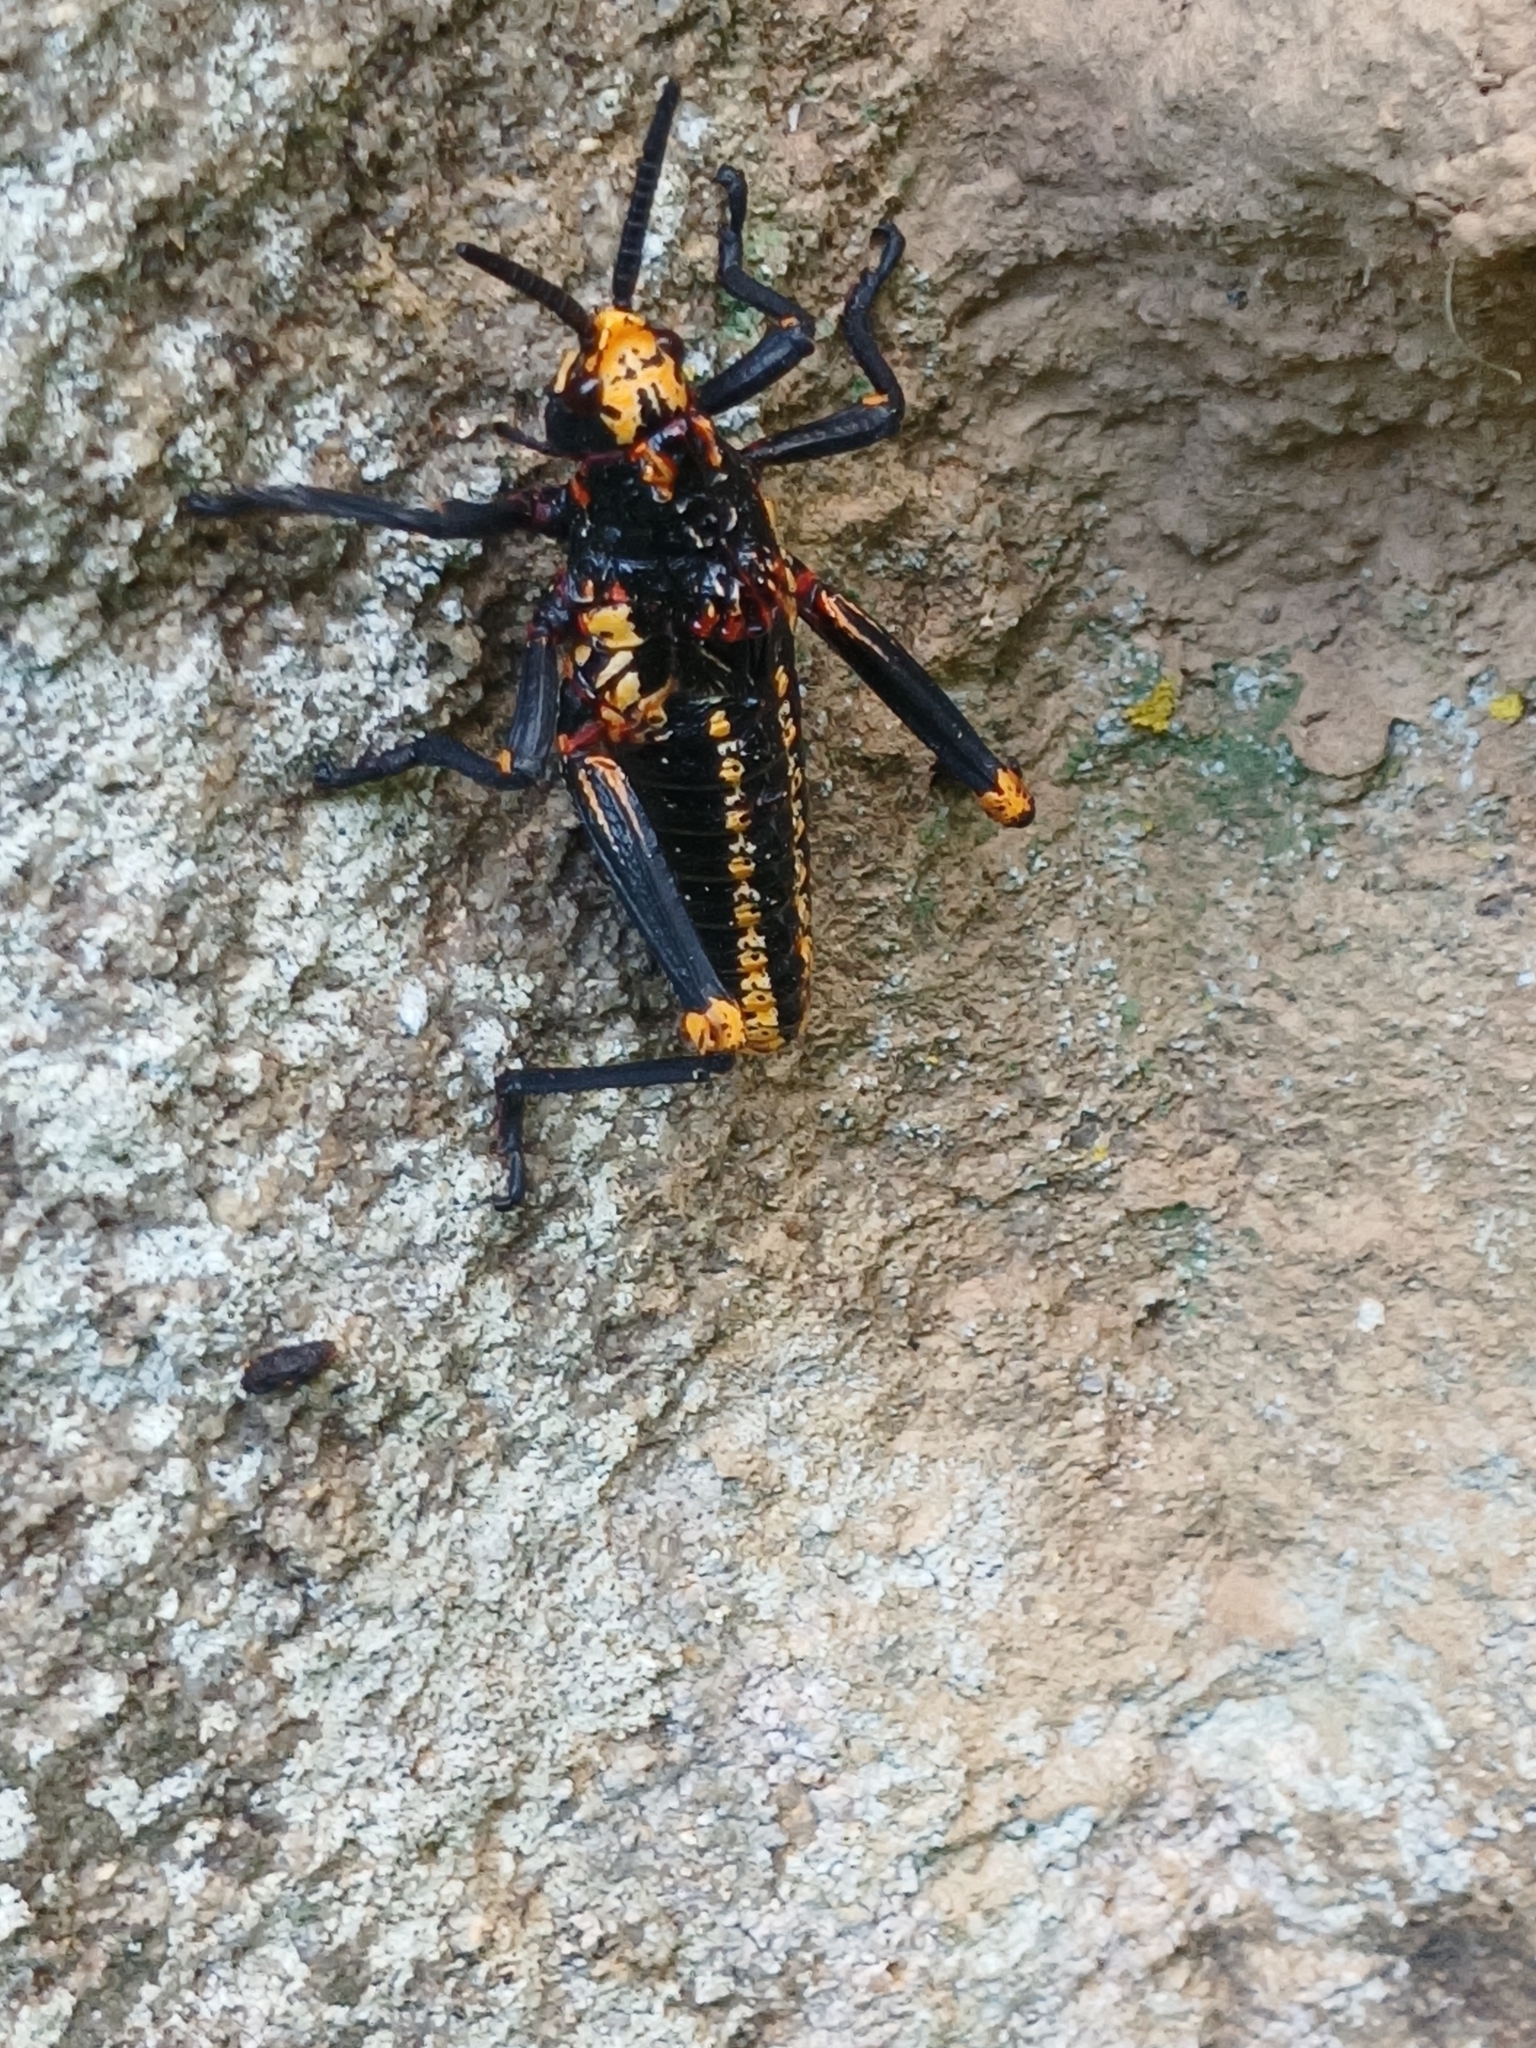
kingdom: Animalia
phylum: Arthropoda
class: Insecta
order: Orthoptera
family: Pyrgomorphidae
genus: Dictyophorus
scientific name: Dictyophorus spumans
